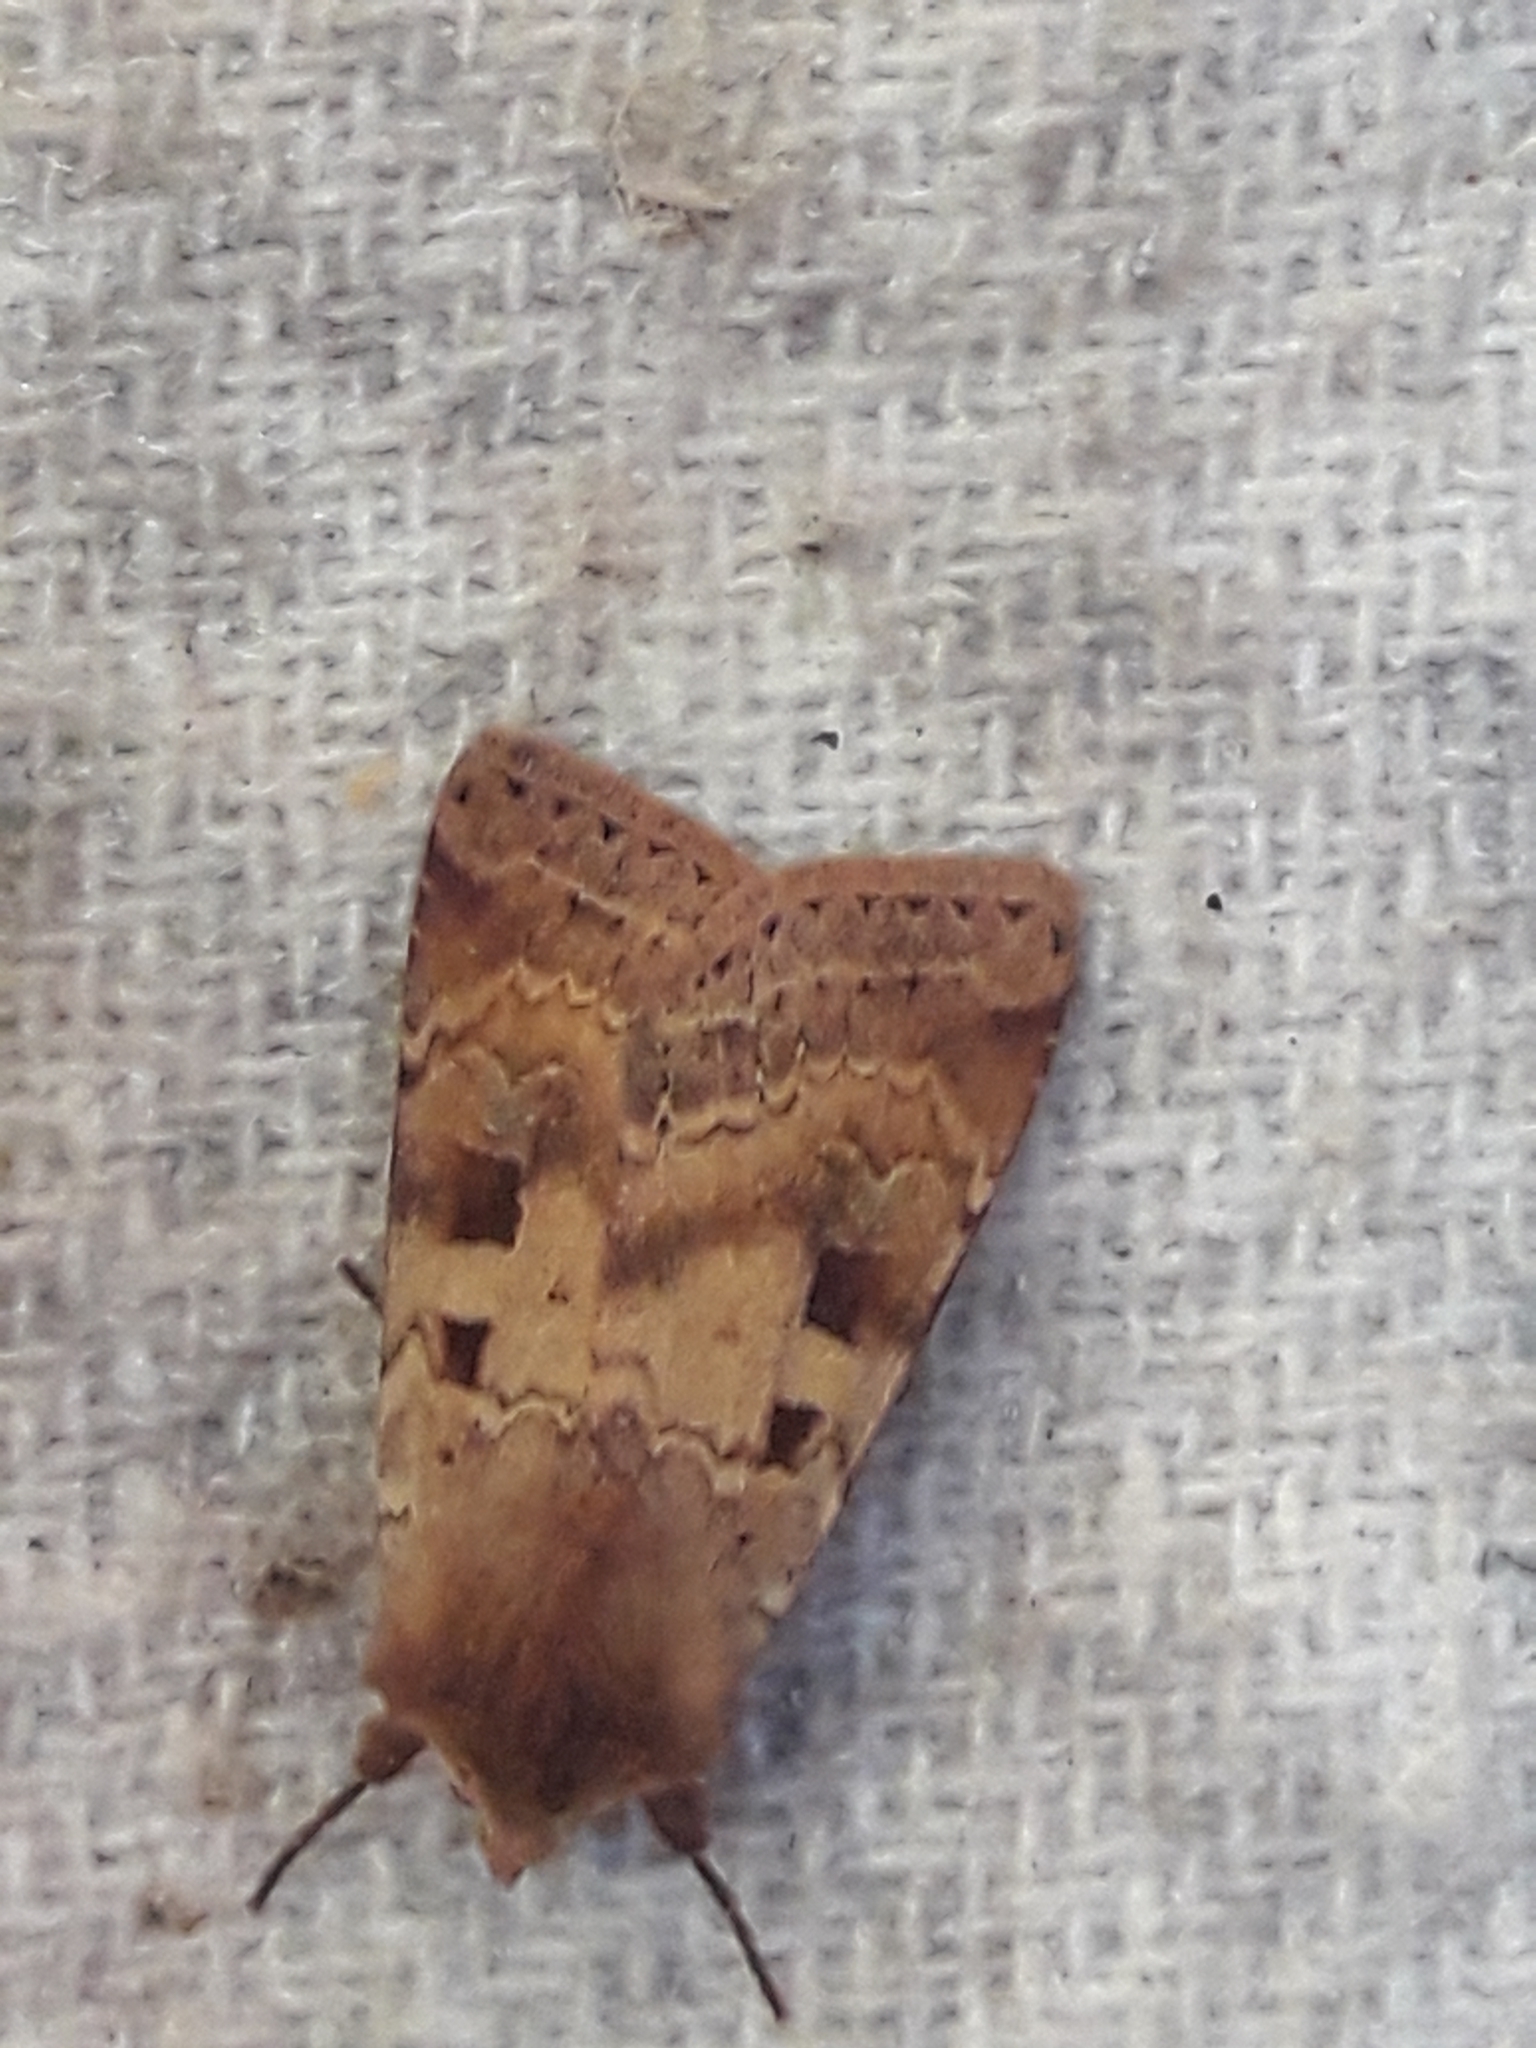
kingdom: Animalia
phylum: Arthropoda
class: Insecta
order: Lepidoptera
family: Noctuidae
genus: Diarsia
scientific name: Diarsia mendica
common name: Ingrailed clay
